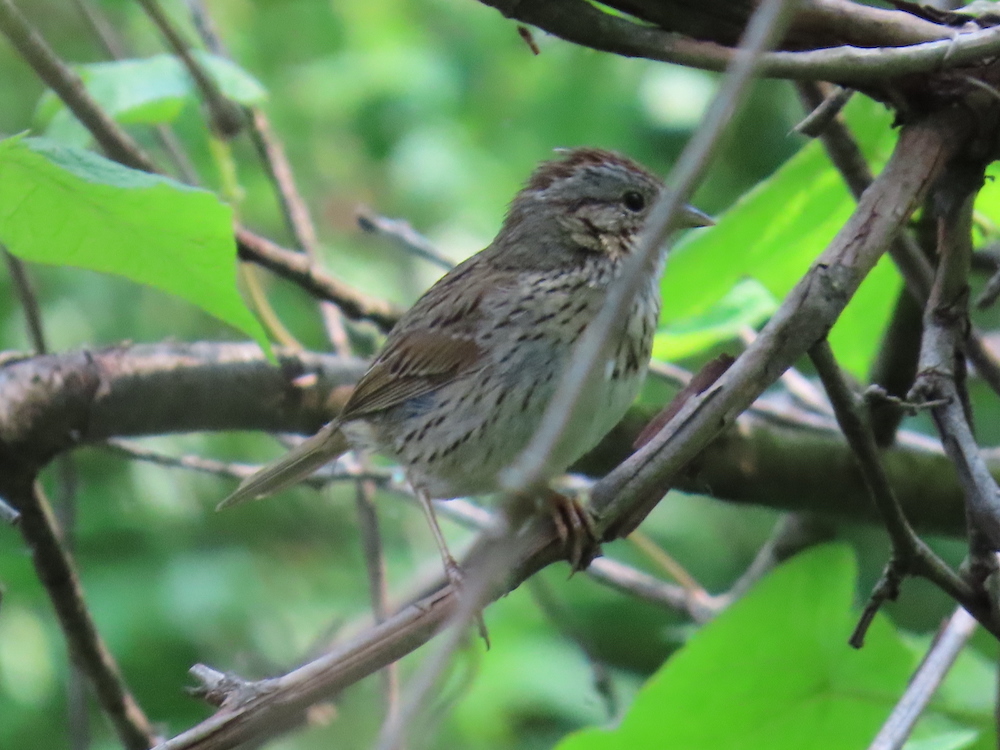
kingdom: Animalia
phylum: Chordata
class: Aves
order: Passeriformes
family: Passerellidae
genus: Melospiza
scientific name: Melospiza lincolnii
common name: Lincoln's sparrow
